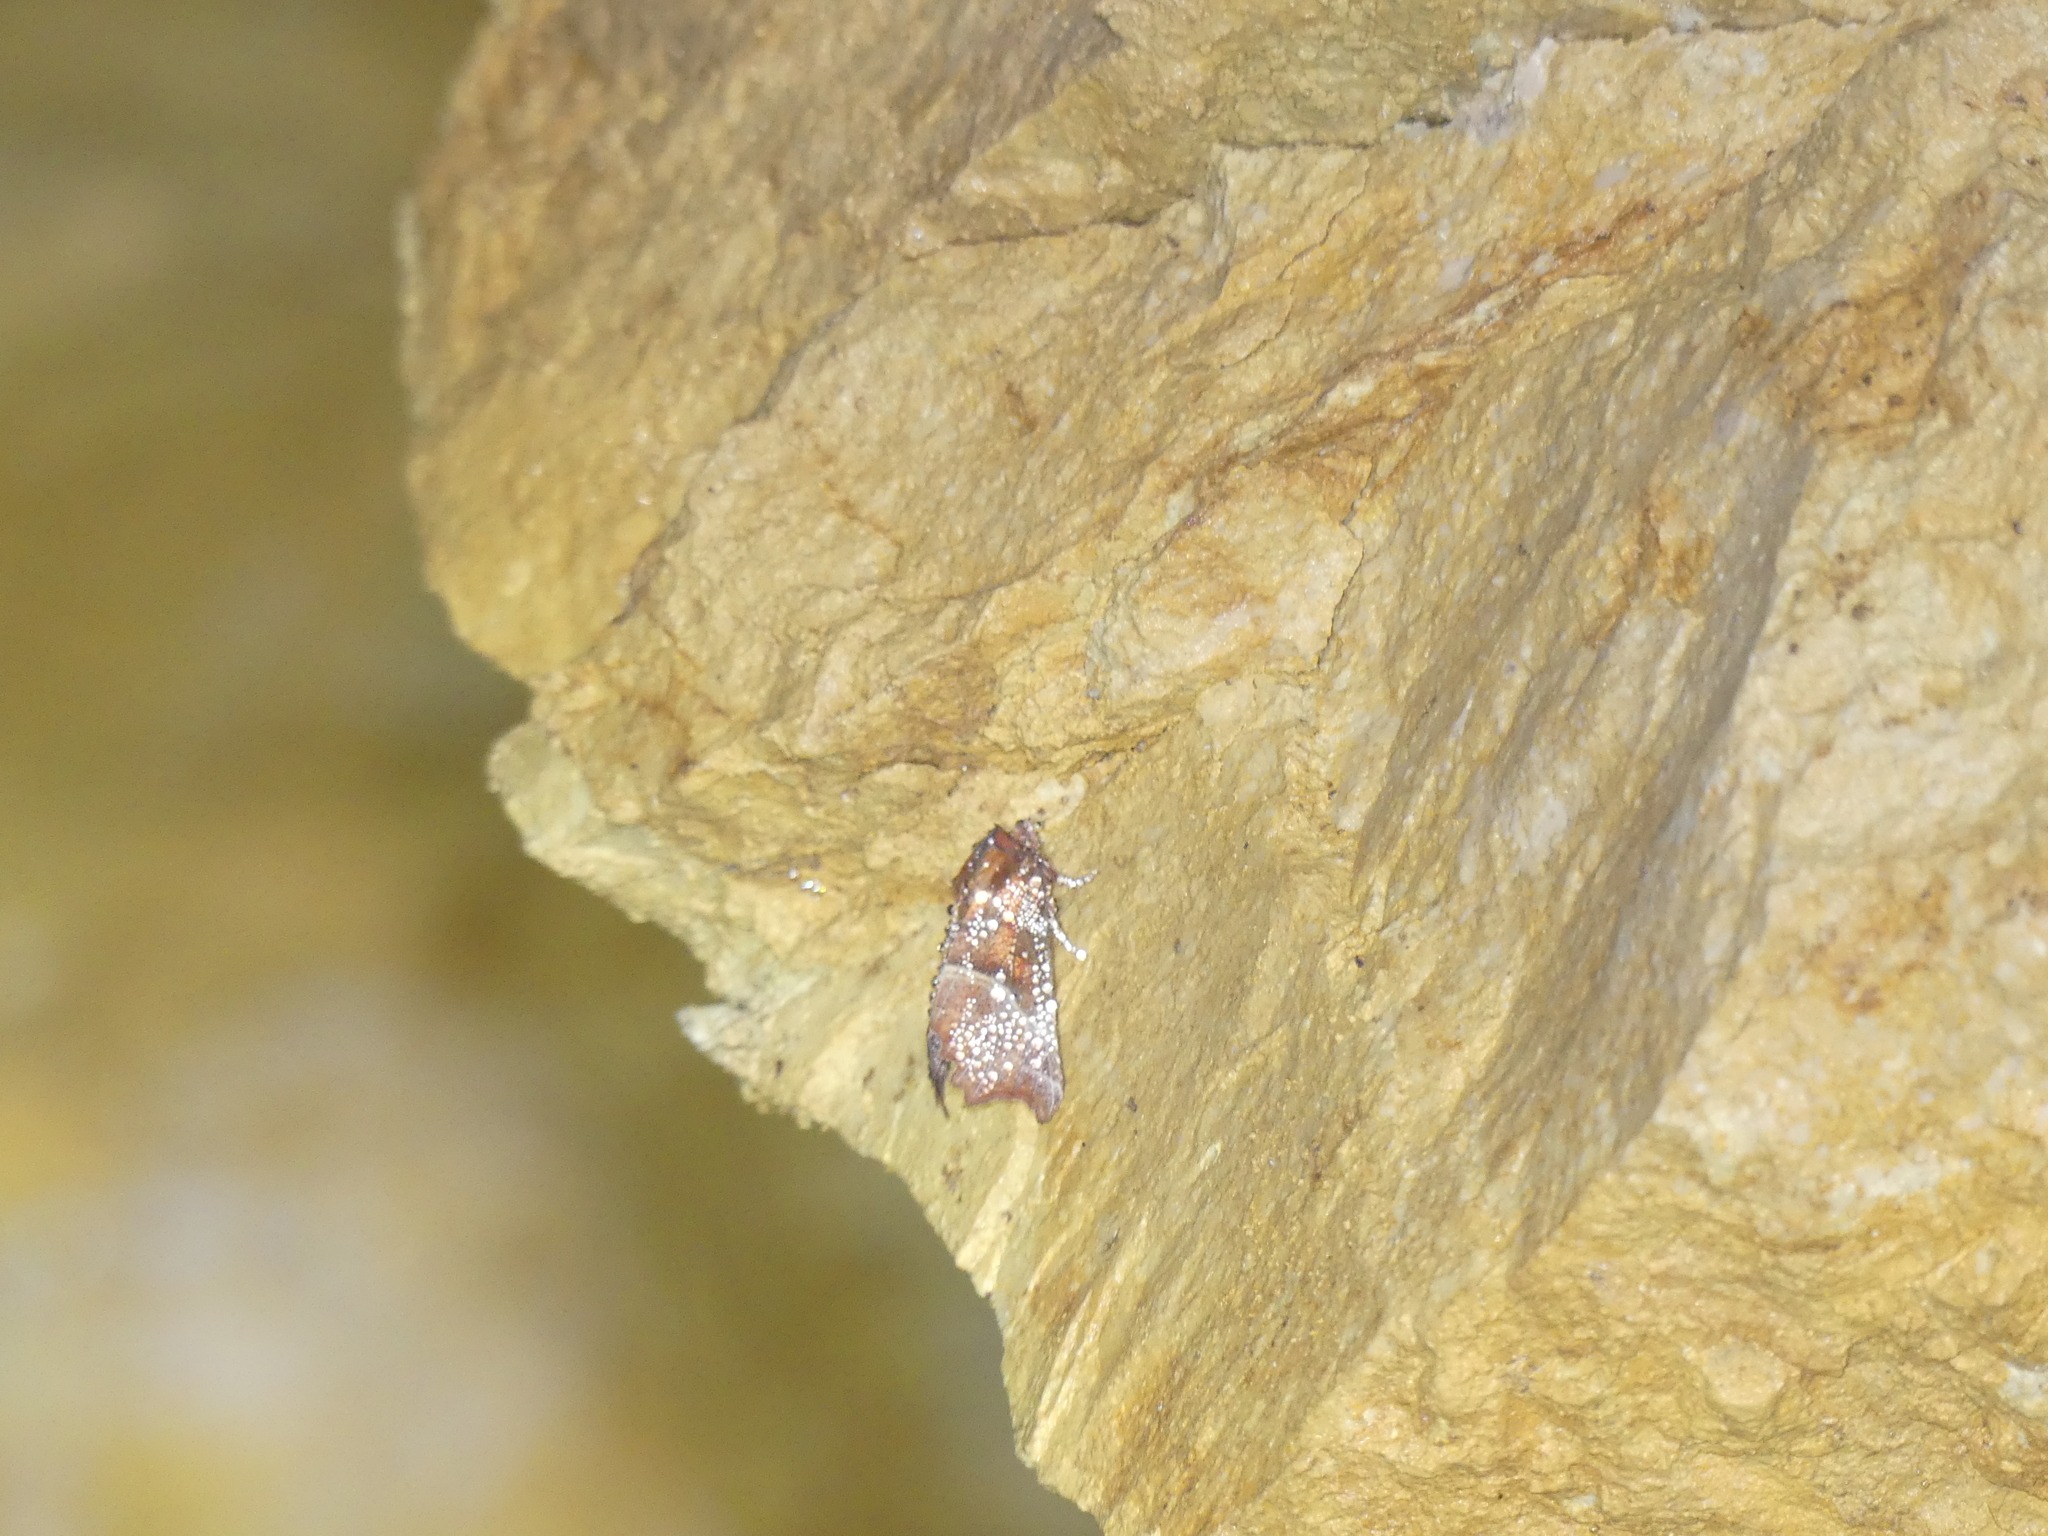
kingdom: Animalia
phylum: Arthropoda
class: Insecta
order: Lepidoptera
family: Erebidae
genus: Scoliopteryx
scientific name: Scoliopteryx libatrix
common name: Herald
